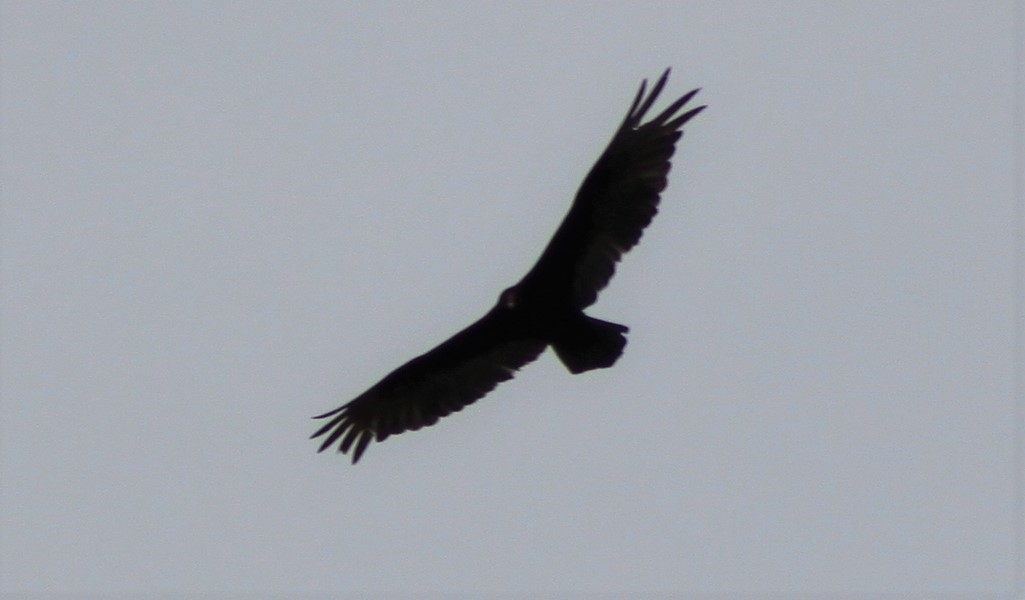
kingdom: Animalia
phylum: Chordata
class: Aves
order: Accipitriformes
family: Cathartidae
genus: Cathartes
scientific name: Cathartes aura
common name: Turkey vulture
